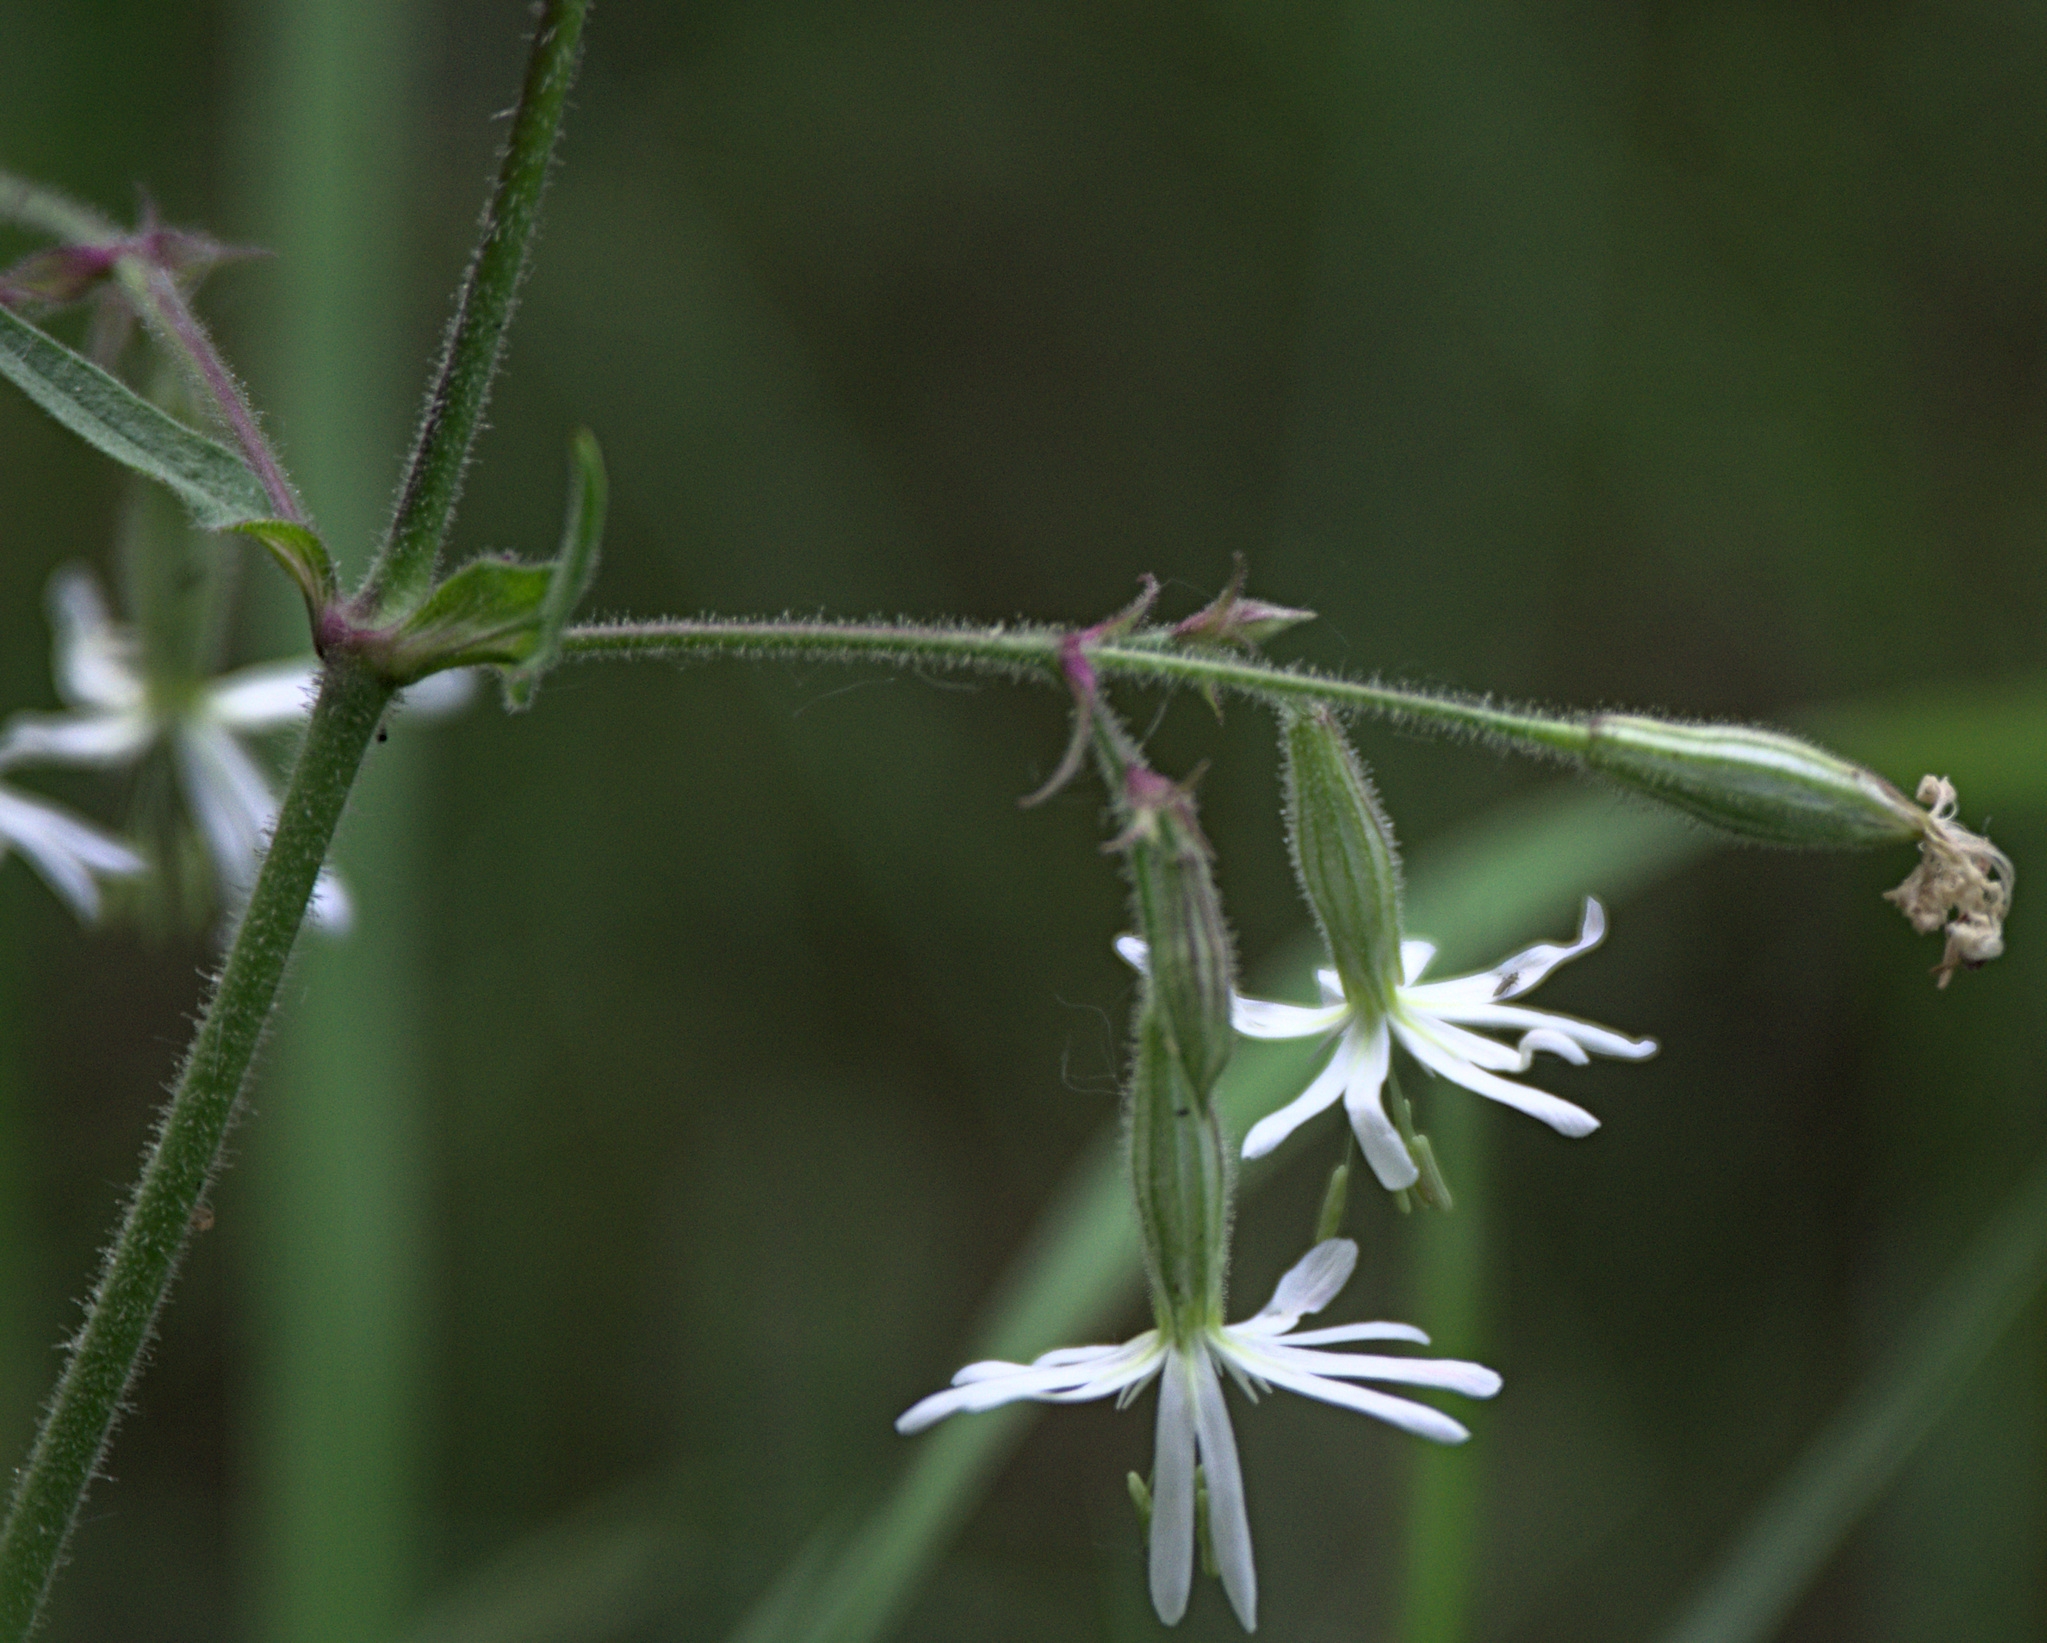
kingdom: Plantae
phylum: Tracheophyta
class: Magnoliopsida
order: Caryophyllales
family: Caryophyllaceae
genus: Silene
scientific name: Silene nutans
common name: Nottingham catchfly
